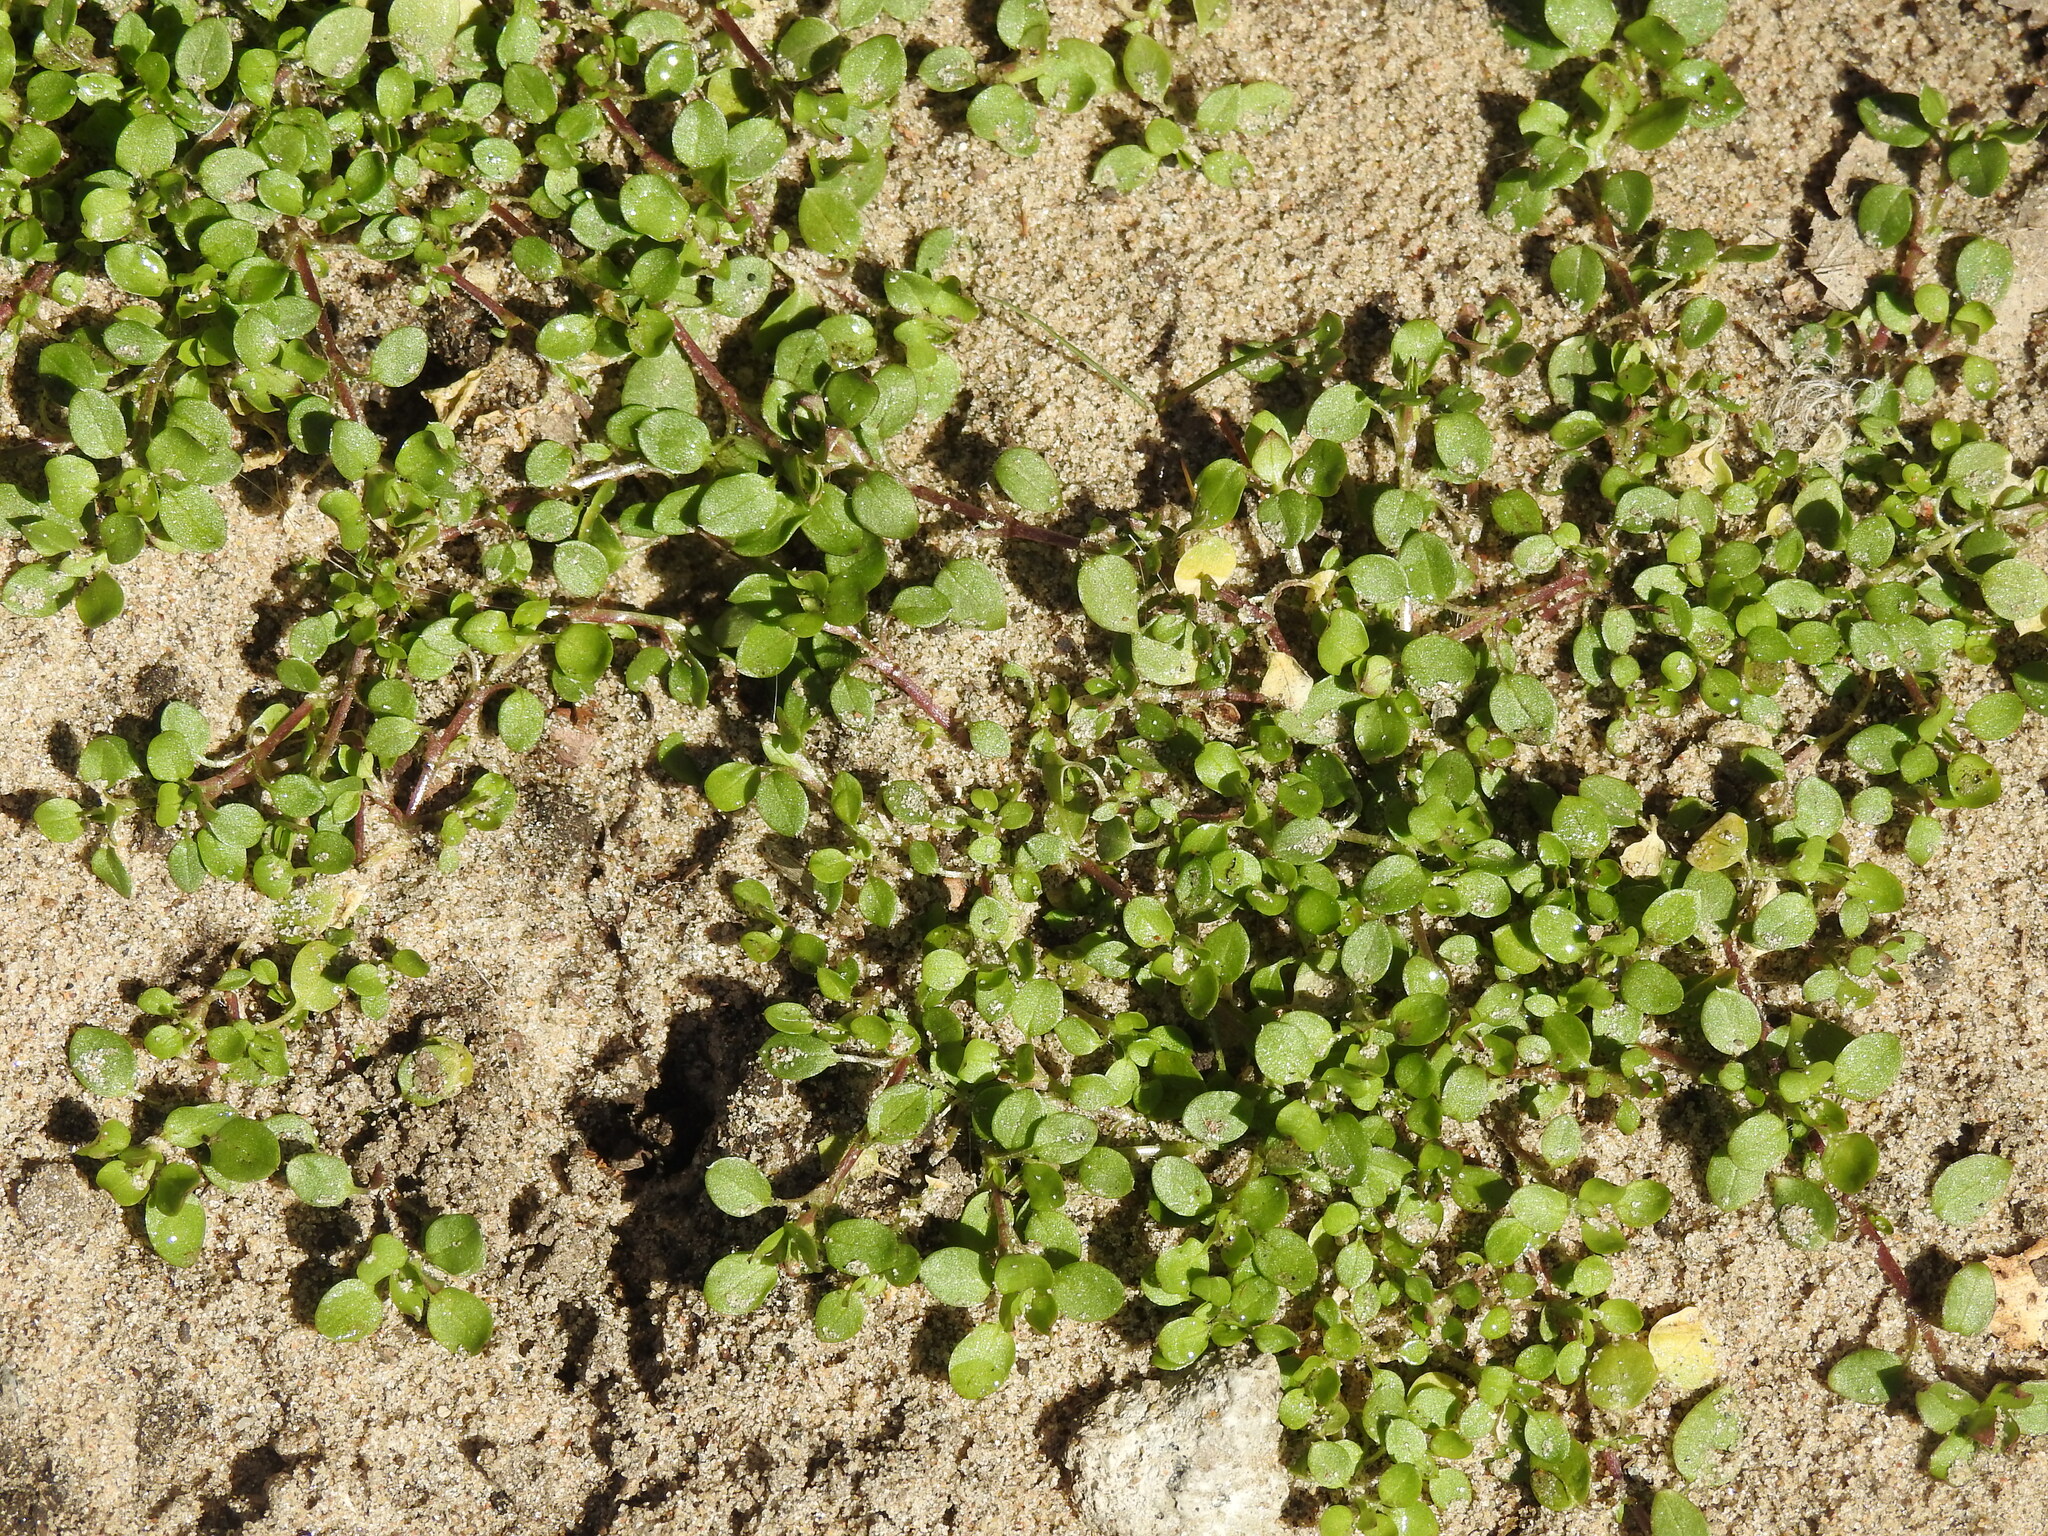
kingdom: Plantae
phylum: Tracheophyta
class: Magnoliopsida
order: Caryophyllales
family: Caryophyllaceae
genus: Stellaria
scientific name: Stellaria media
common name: Common chickweed
